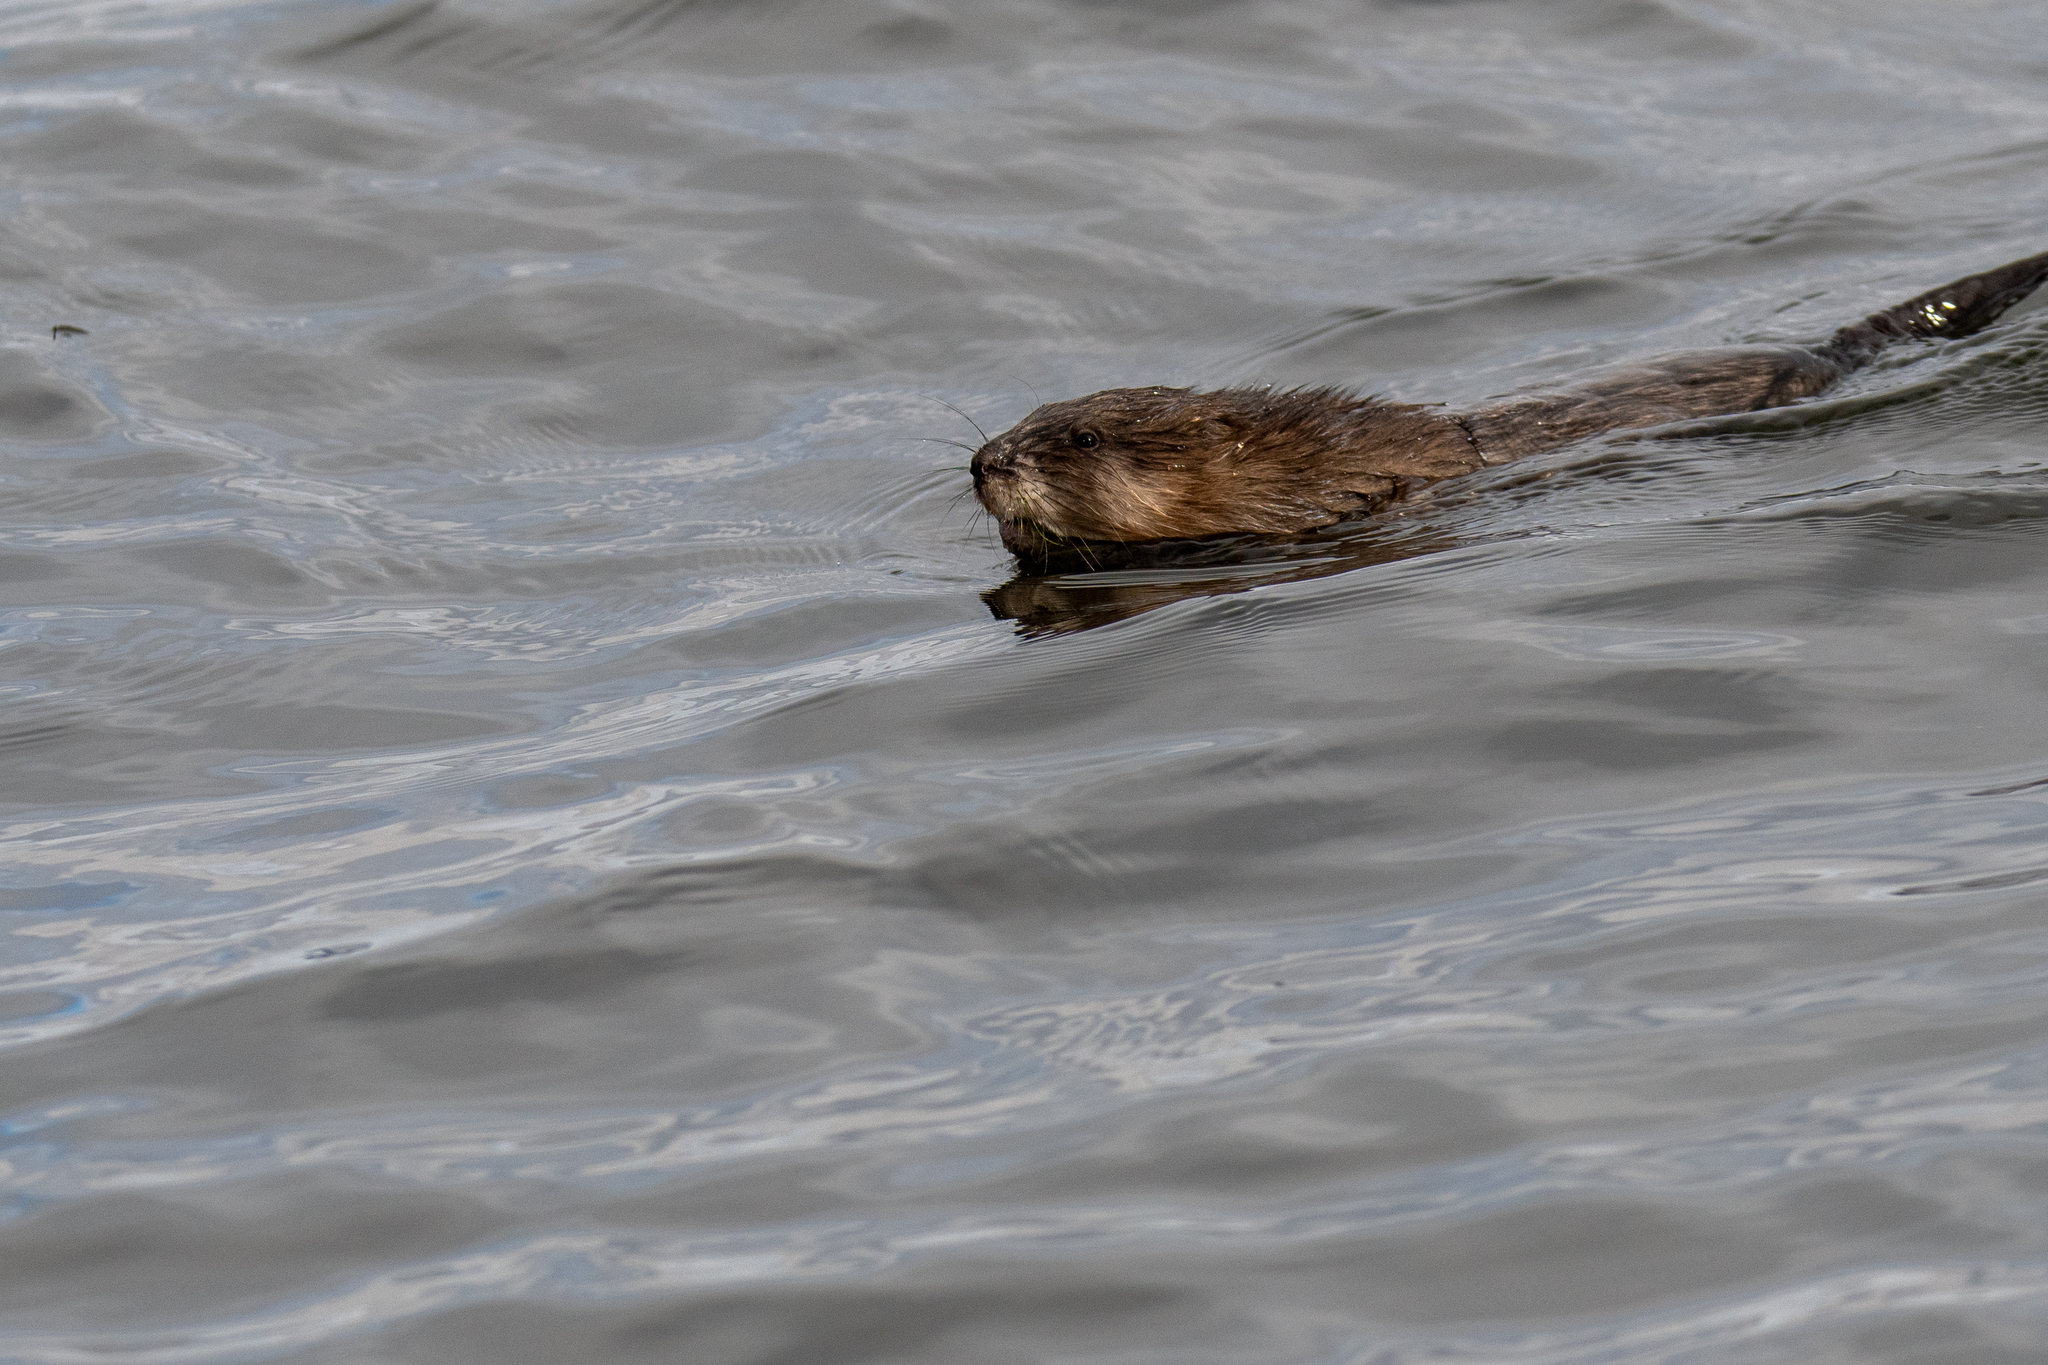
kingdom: Animalia
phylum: Chordata
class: Mammalia
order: Rodentia
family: Cricetidae
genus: Ondatra
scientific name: Ondatra zibethicus
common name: Muskrat
